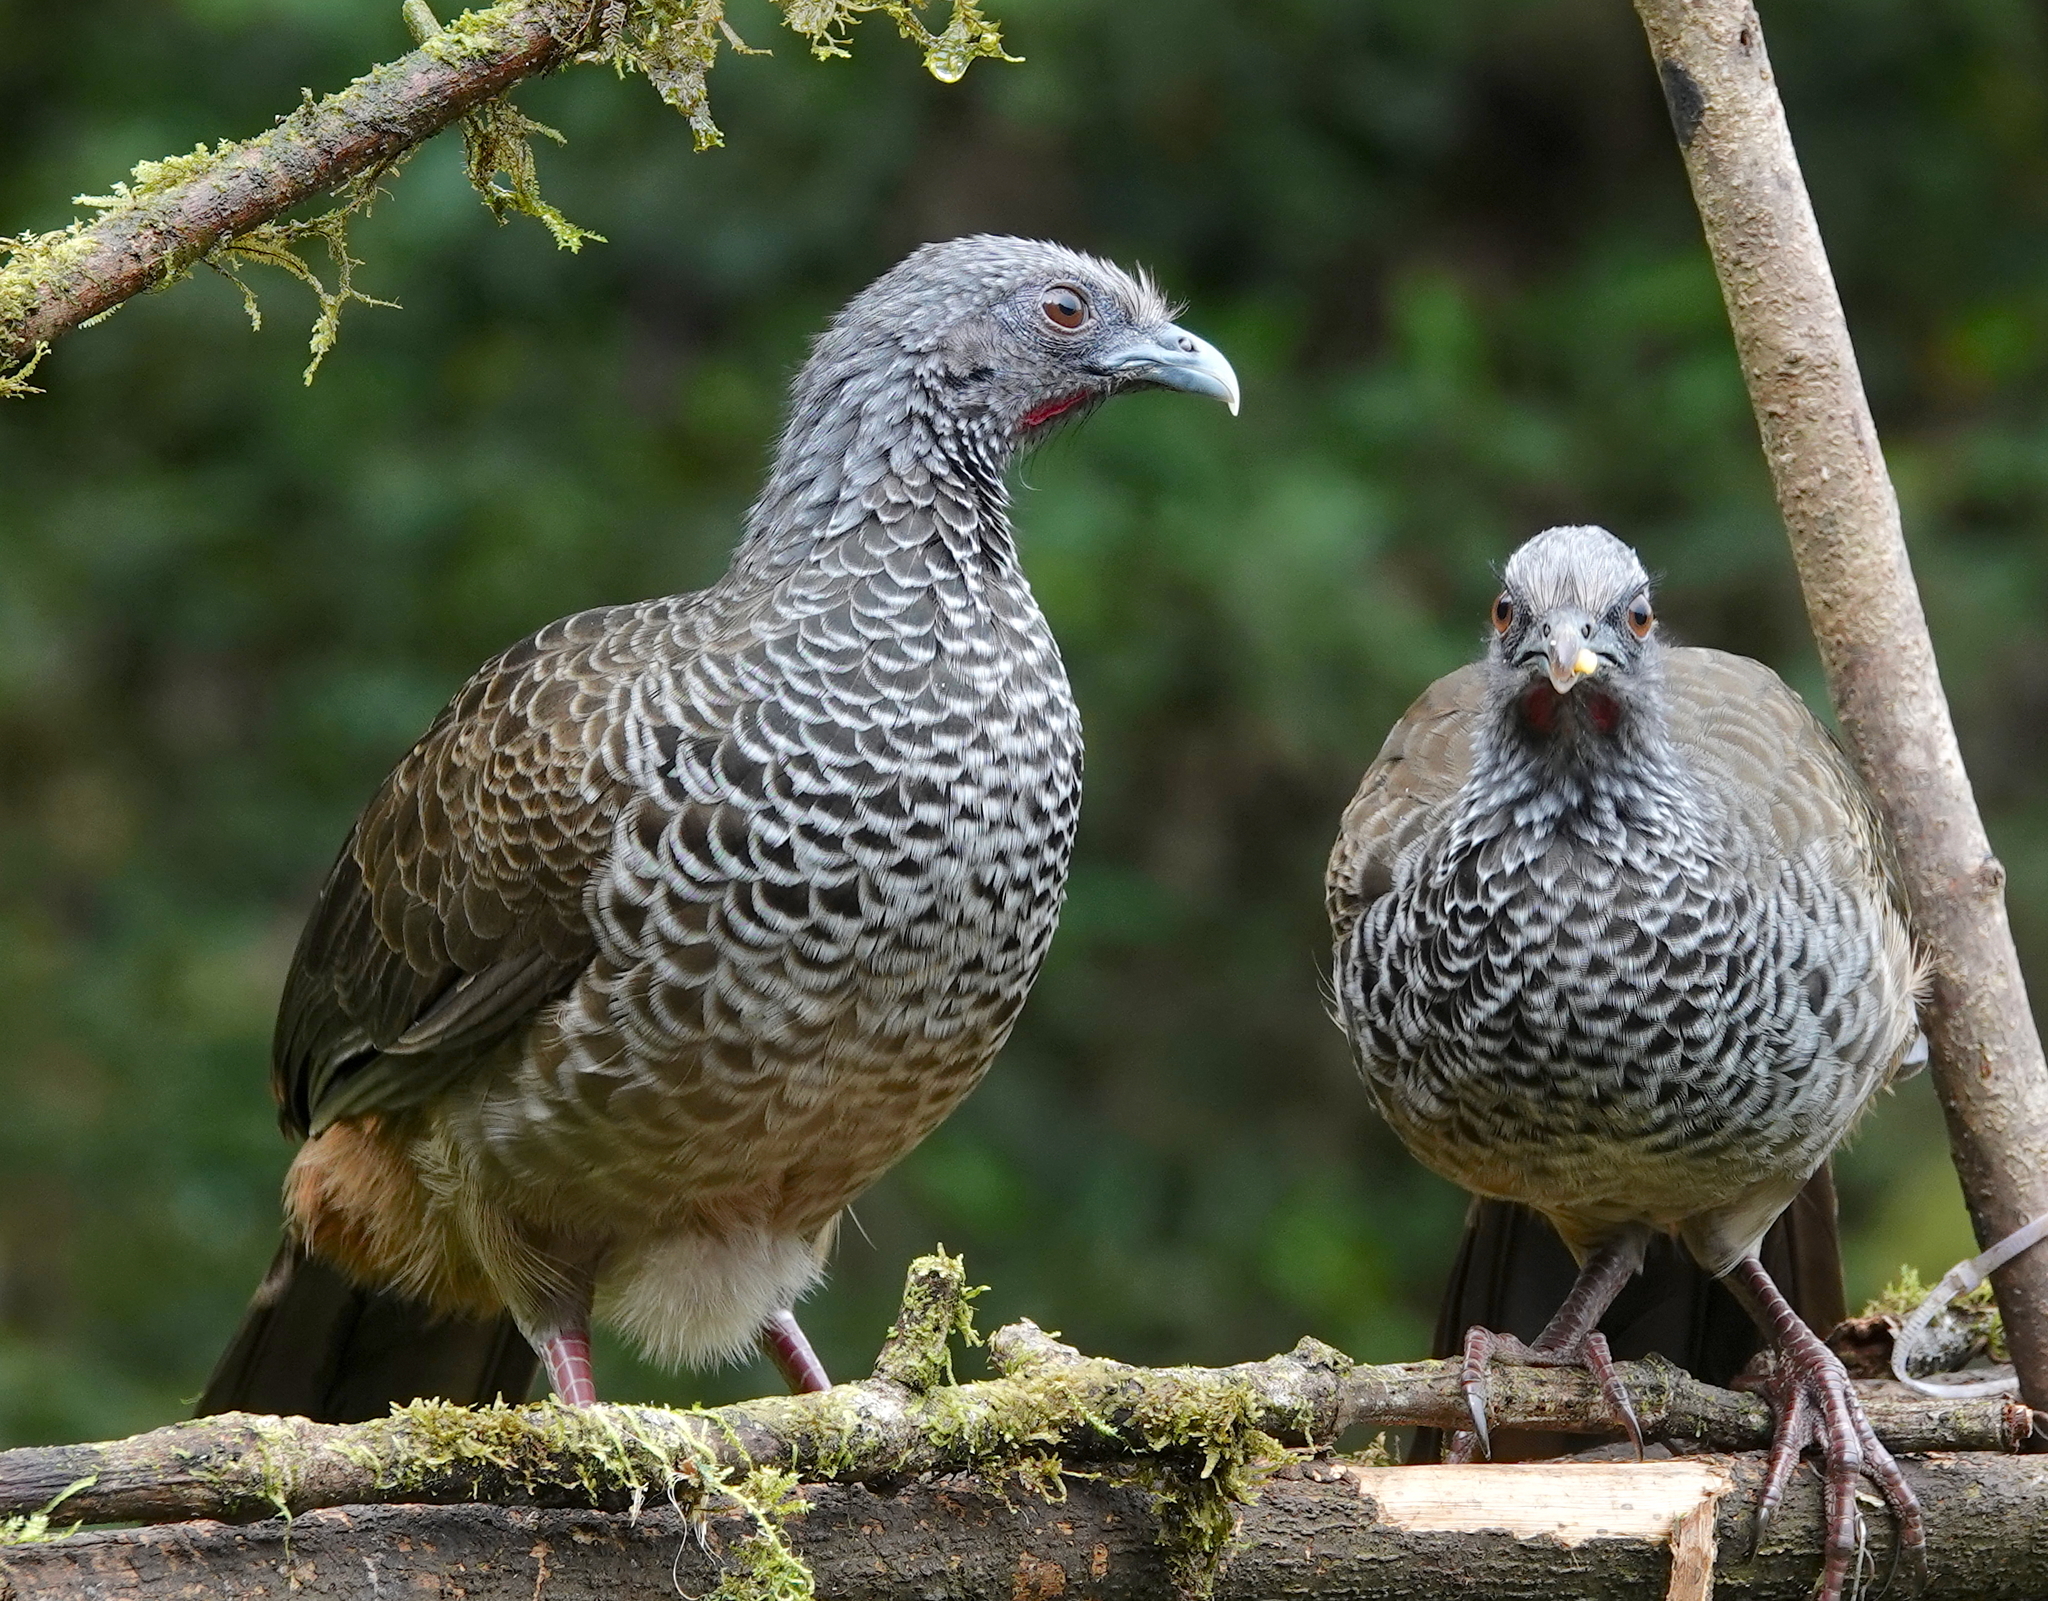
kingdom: Animalia
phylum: Chordata
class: Aves
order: Galliformes
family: Cracidae
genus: Ortalis
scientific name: Ortalis columbiana
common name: Colombian chachalaca
